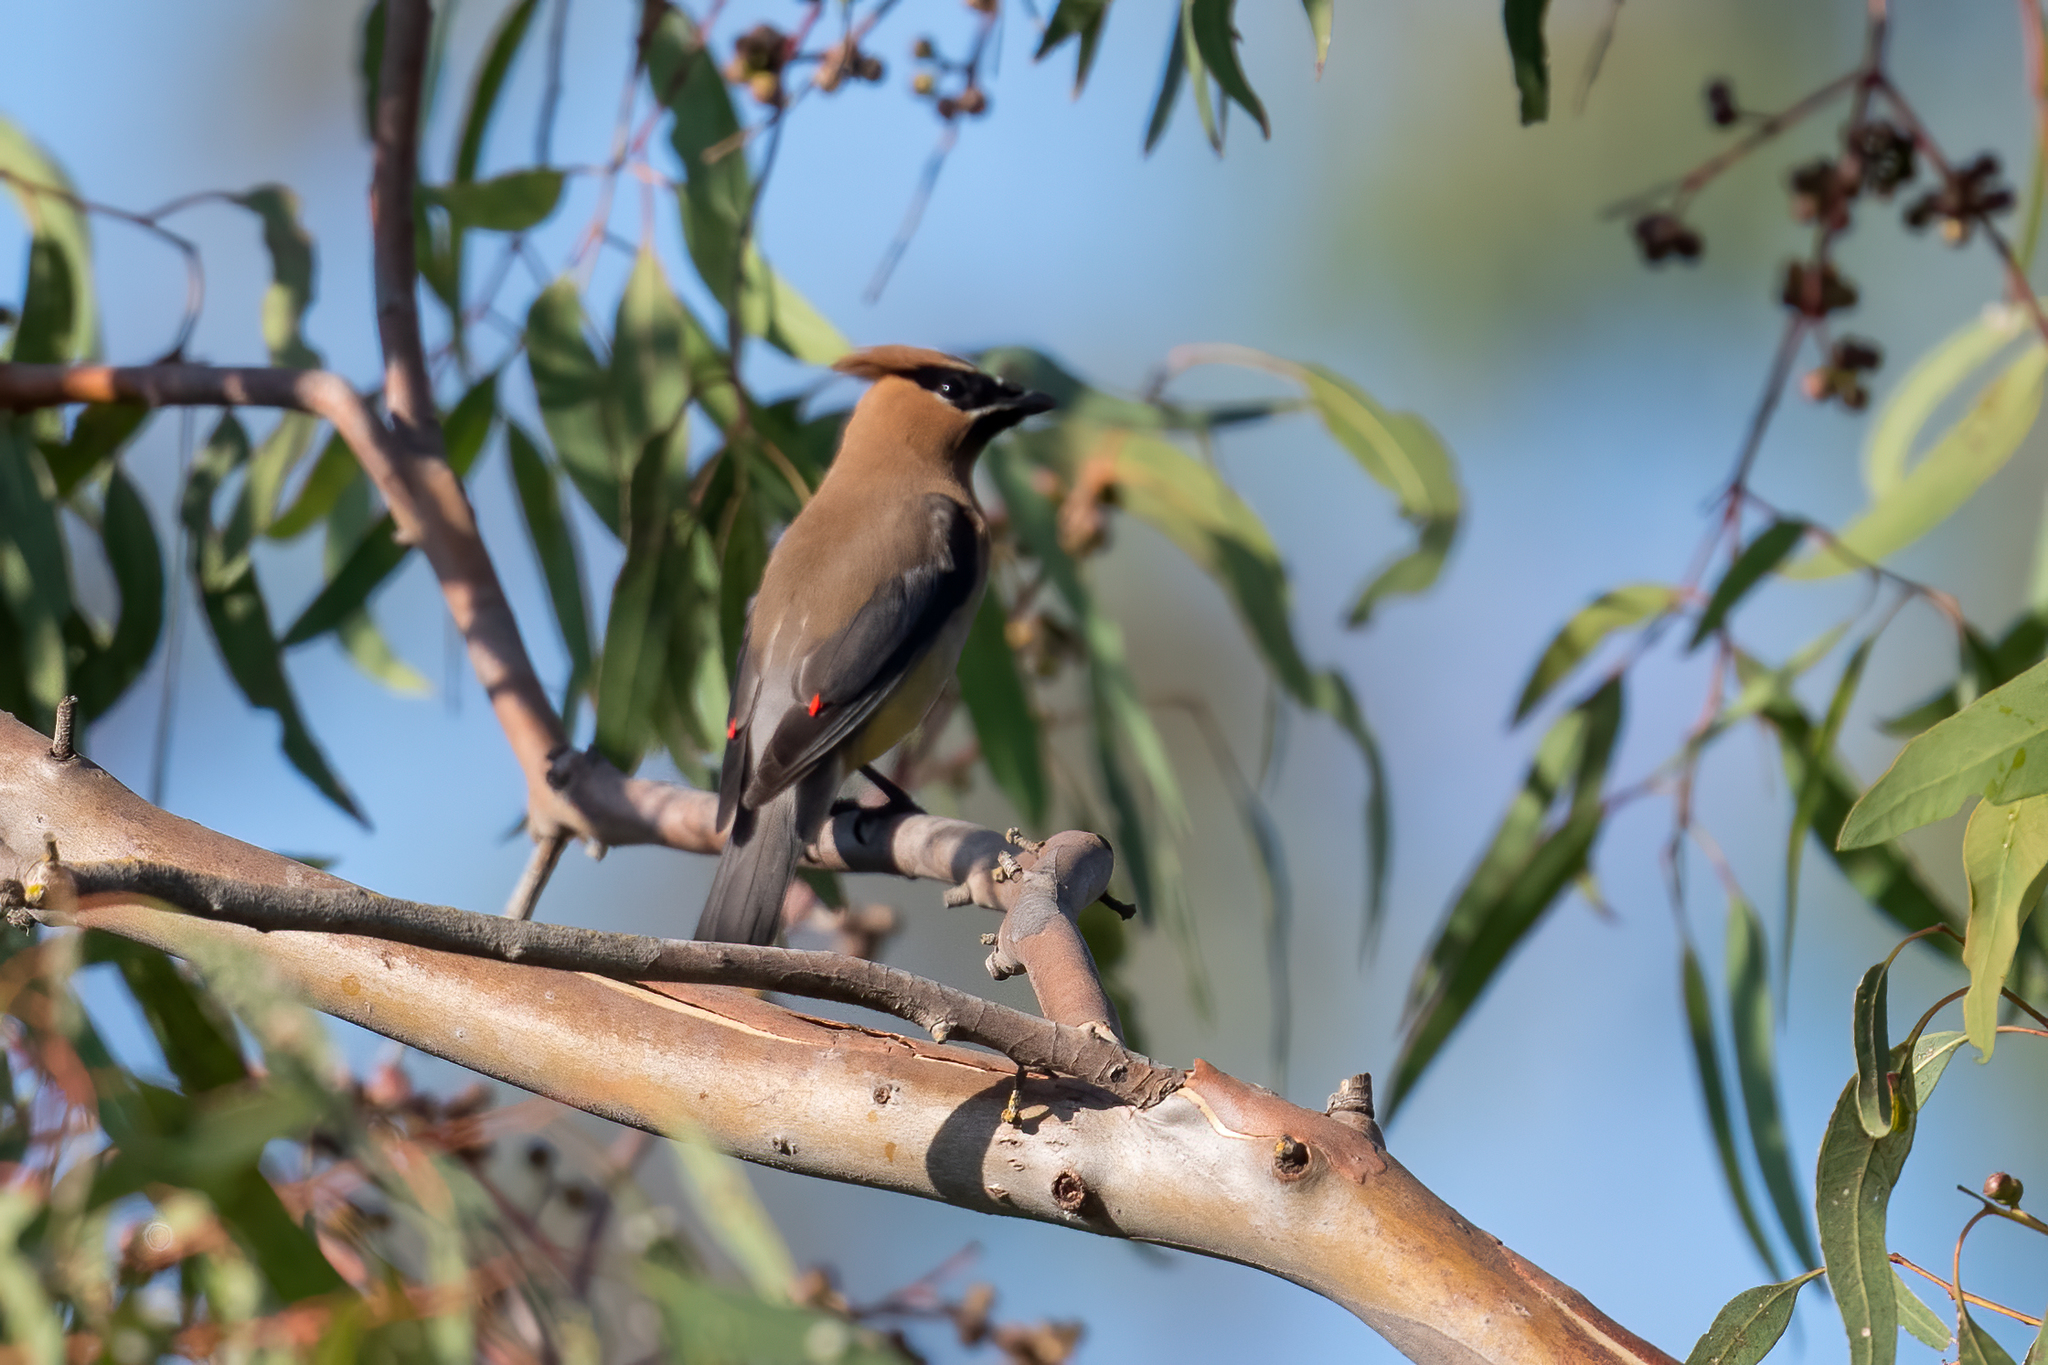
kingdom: Animalia
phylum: Chordata
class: Aves
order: Passeriformes
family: Bombycillidae
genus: Bombycilla
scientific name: Bombycilla cedrorum
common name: Cedar waxwing
